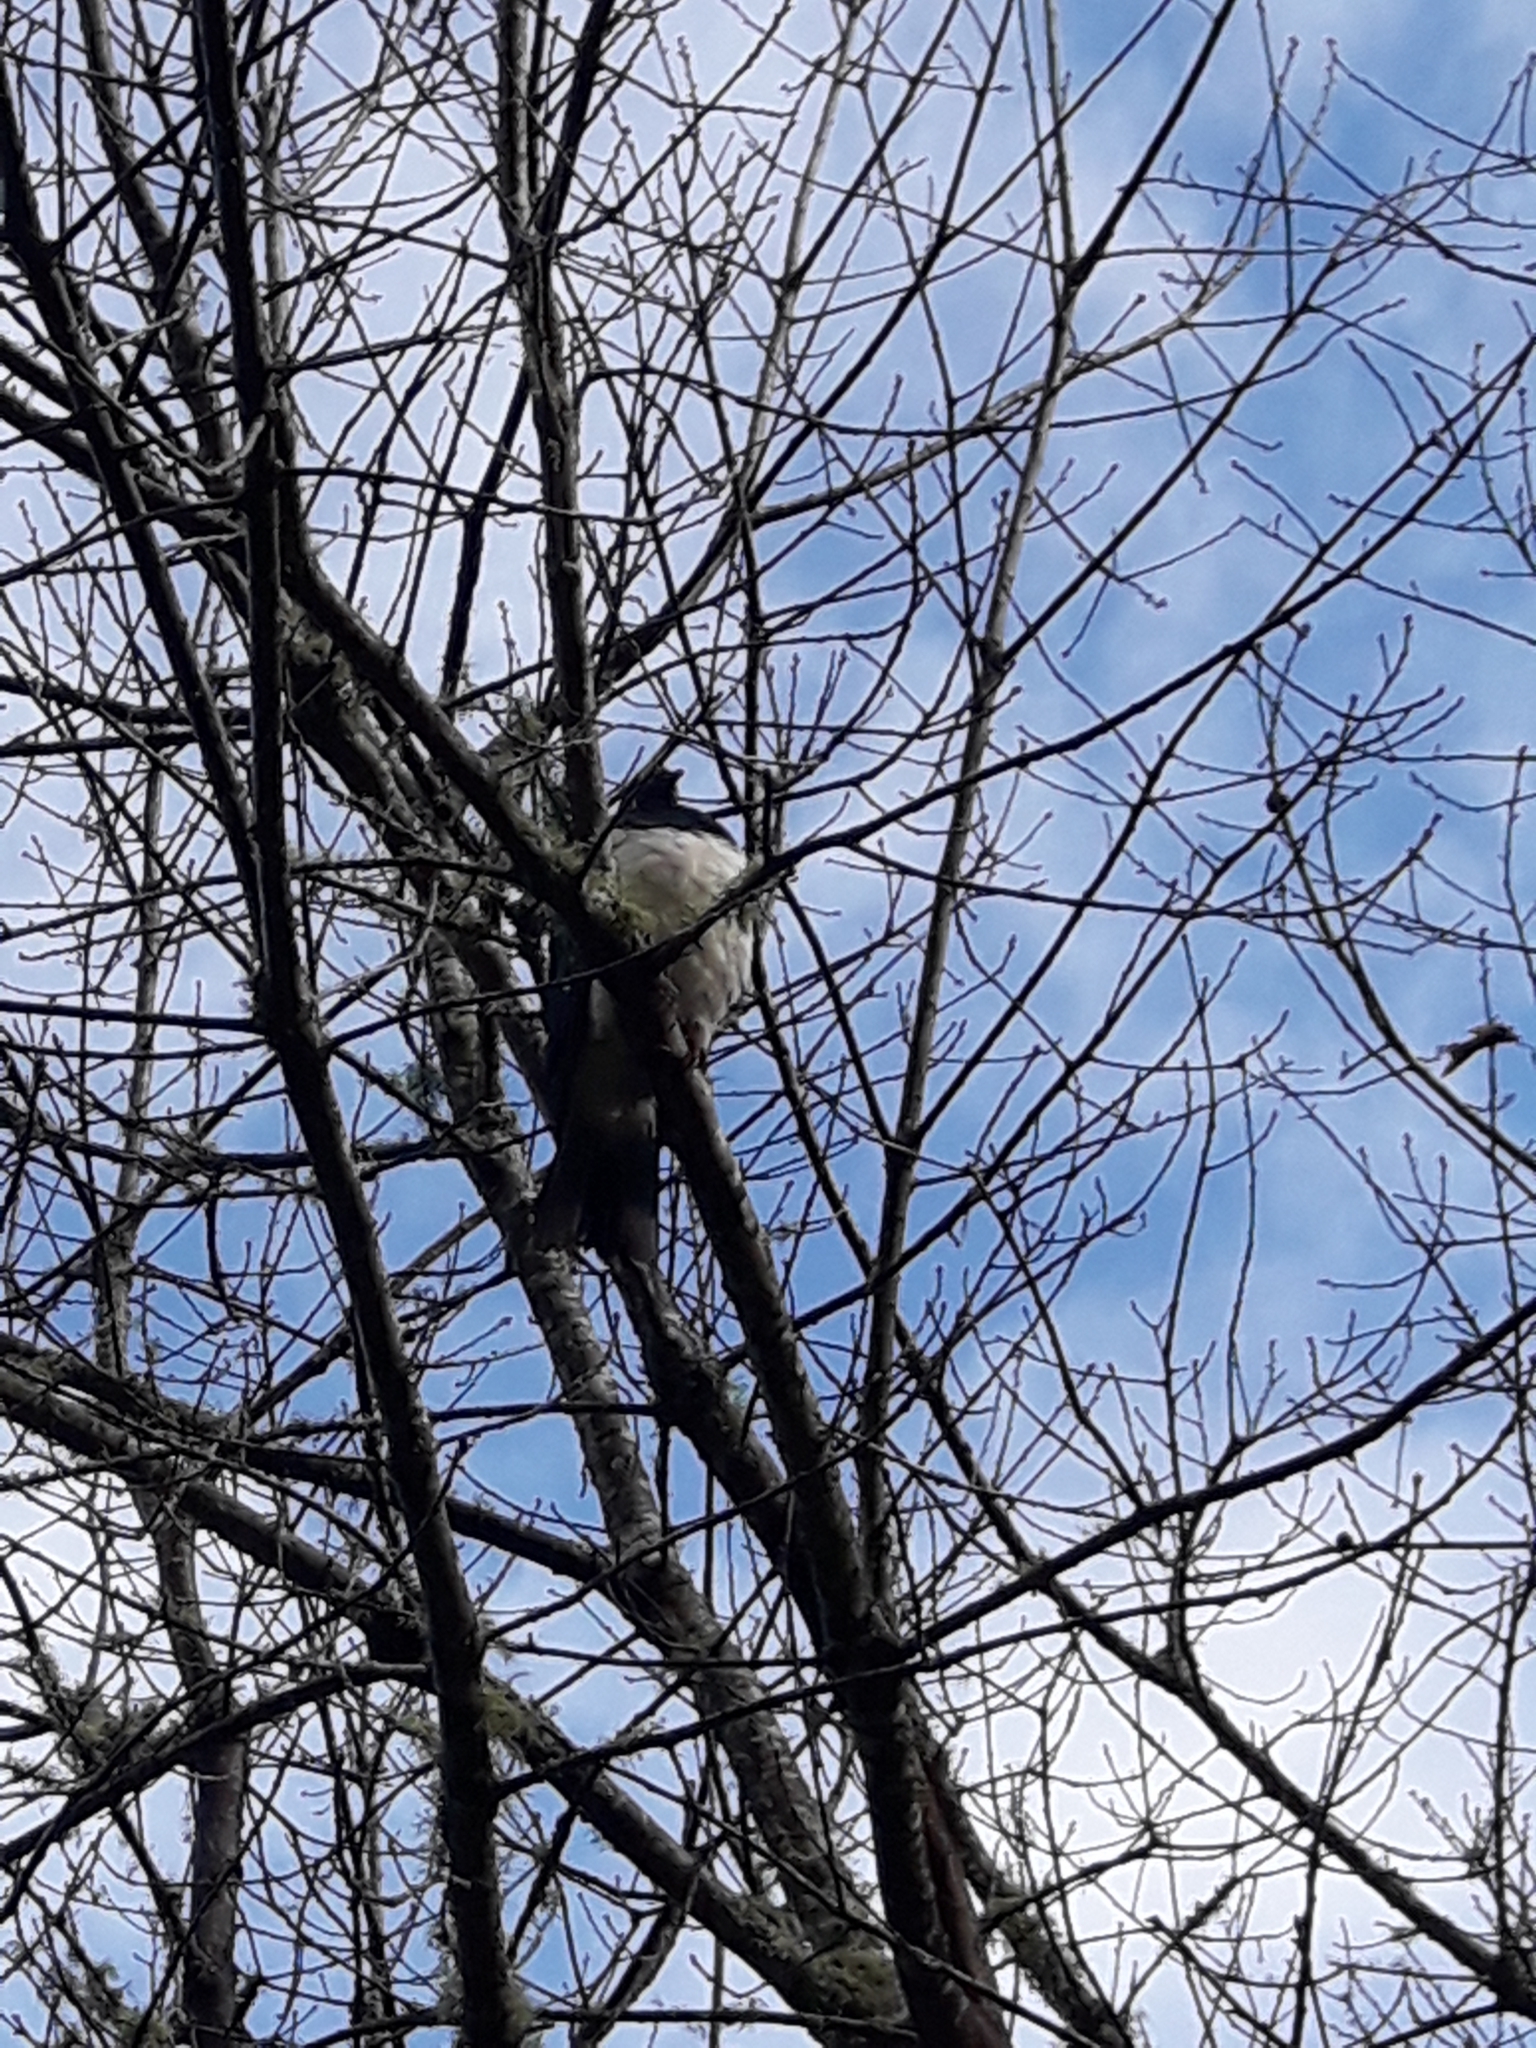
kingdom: Animalia
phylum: Chordata
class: Aves
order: Columbiformes
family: Columbidae
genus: Hemiphaga
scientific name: Hemiphaga novaeseelandiae
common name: New zealand pigeon
